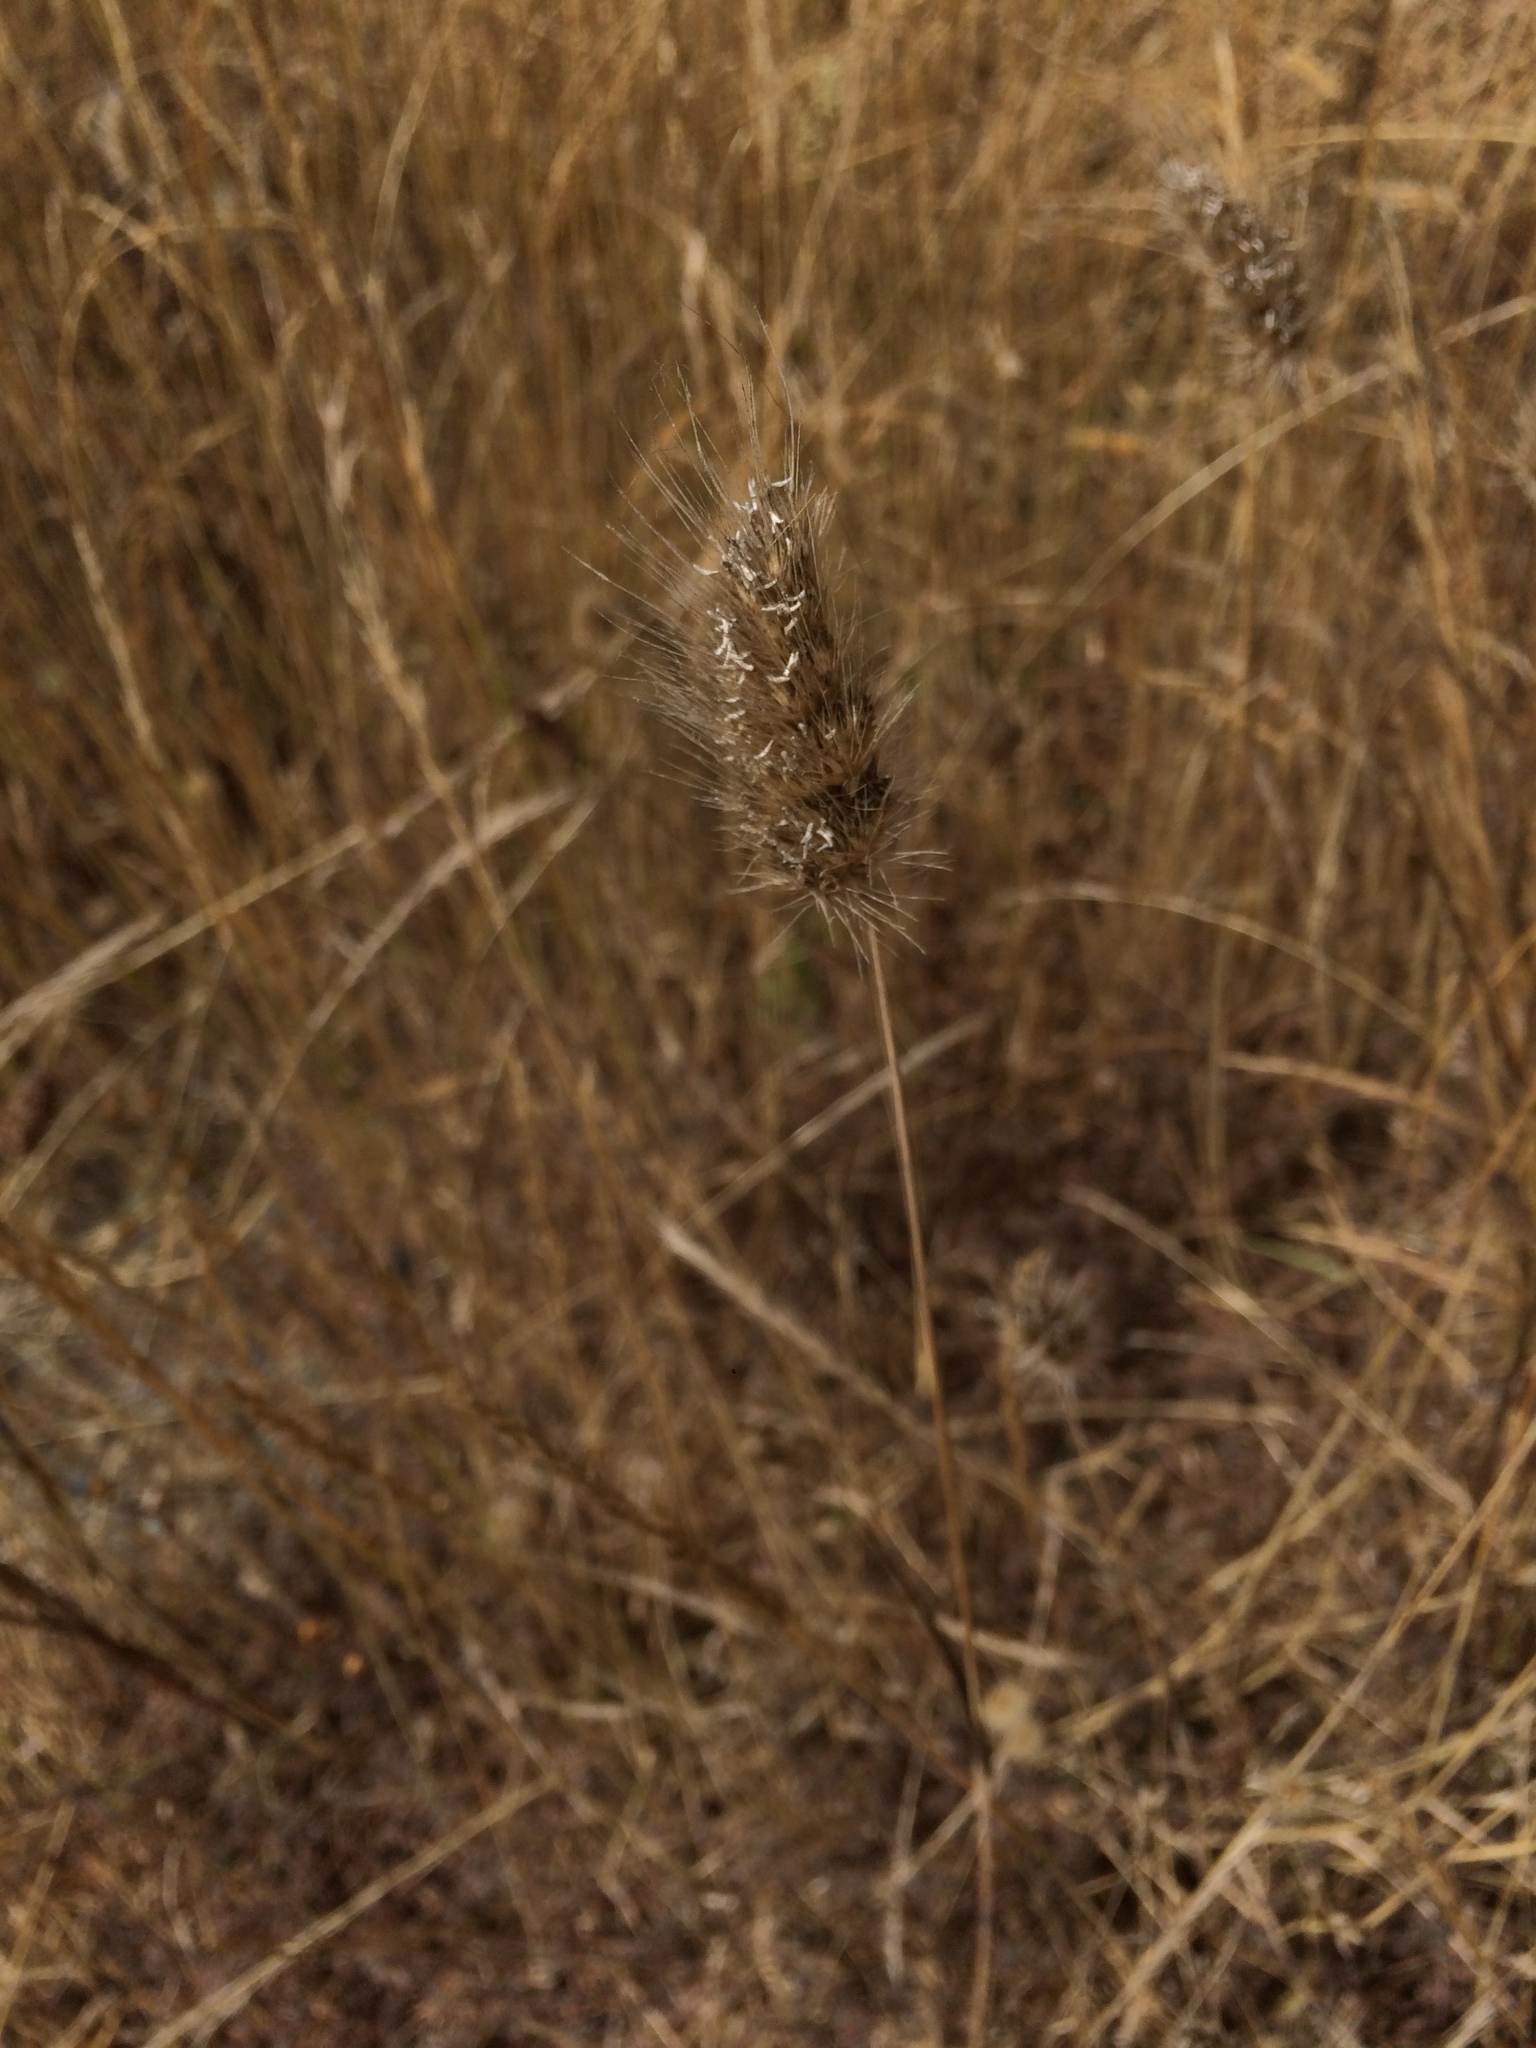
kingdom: Plantae
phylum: Tracheophyta
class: Liliopsida
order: Poales
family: Poaceae
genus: Cynosurus
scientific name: Cynosurus echinatus
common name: Rough dog's-tail
